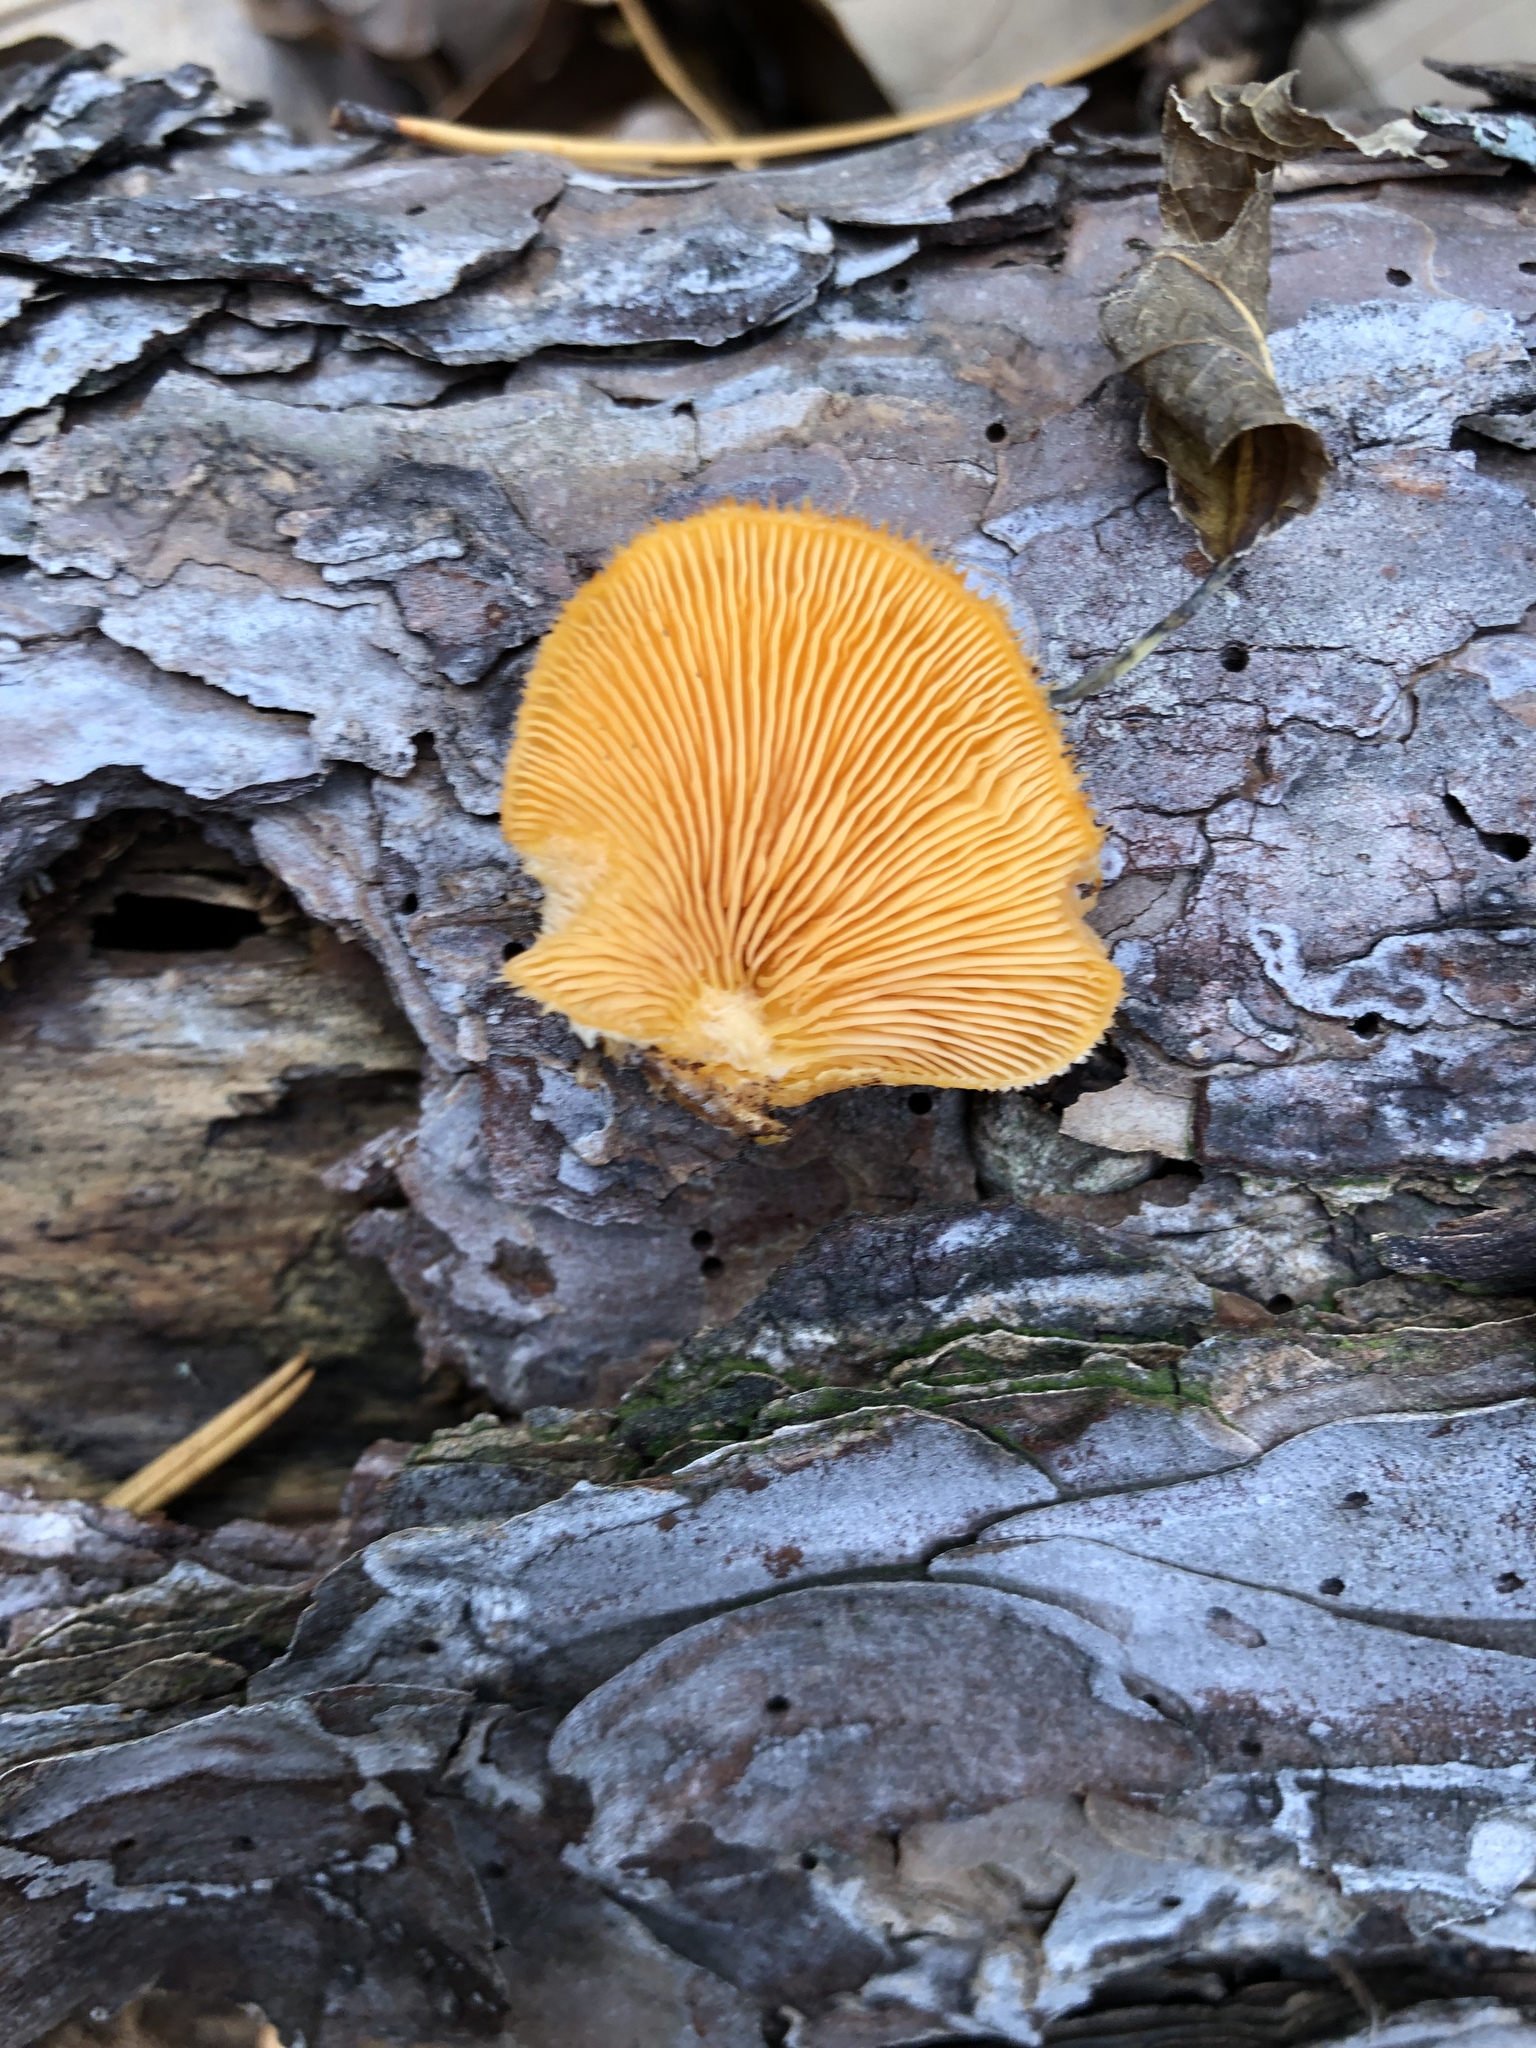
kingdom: Fungi
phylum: Basidiomycota
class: Agaricomycetes
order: Agaricales
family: Phyllotopsidaceae
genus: Phyllotopsis
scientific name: Phyllotopsis nidulans
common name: Orange mock oyster
